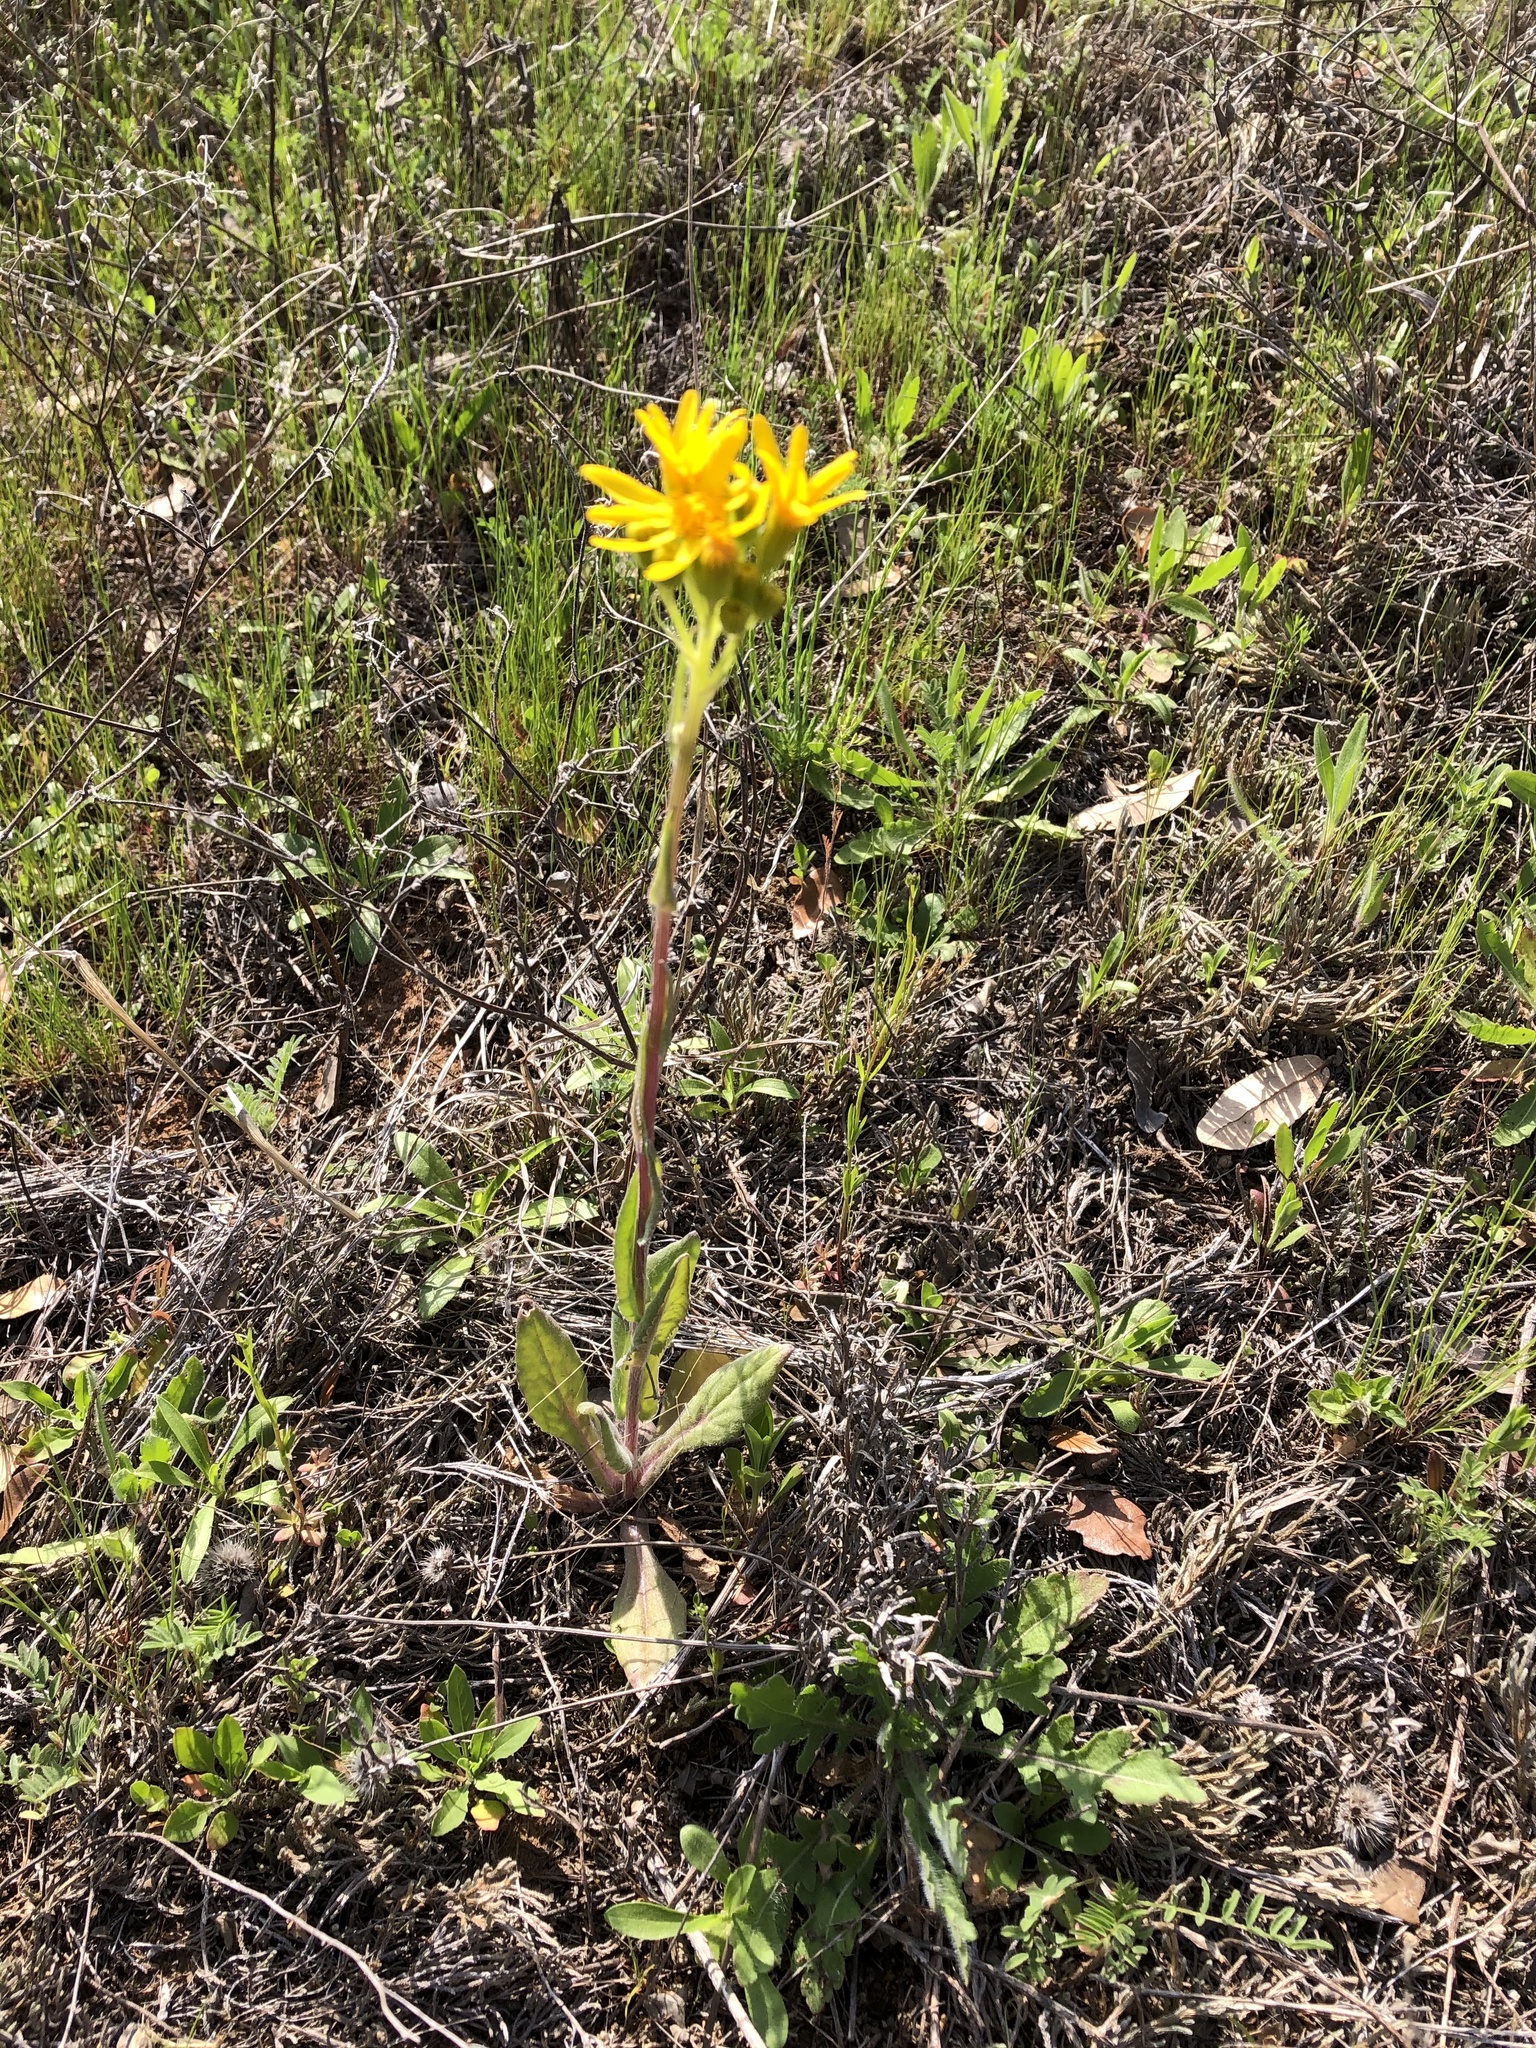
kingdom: Plantae
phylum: Tracheophyta
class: Magnoliopsida
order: Asterales
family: Asteraceae
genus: Senecio
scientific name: Senecio ampullaceus
